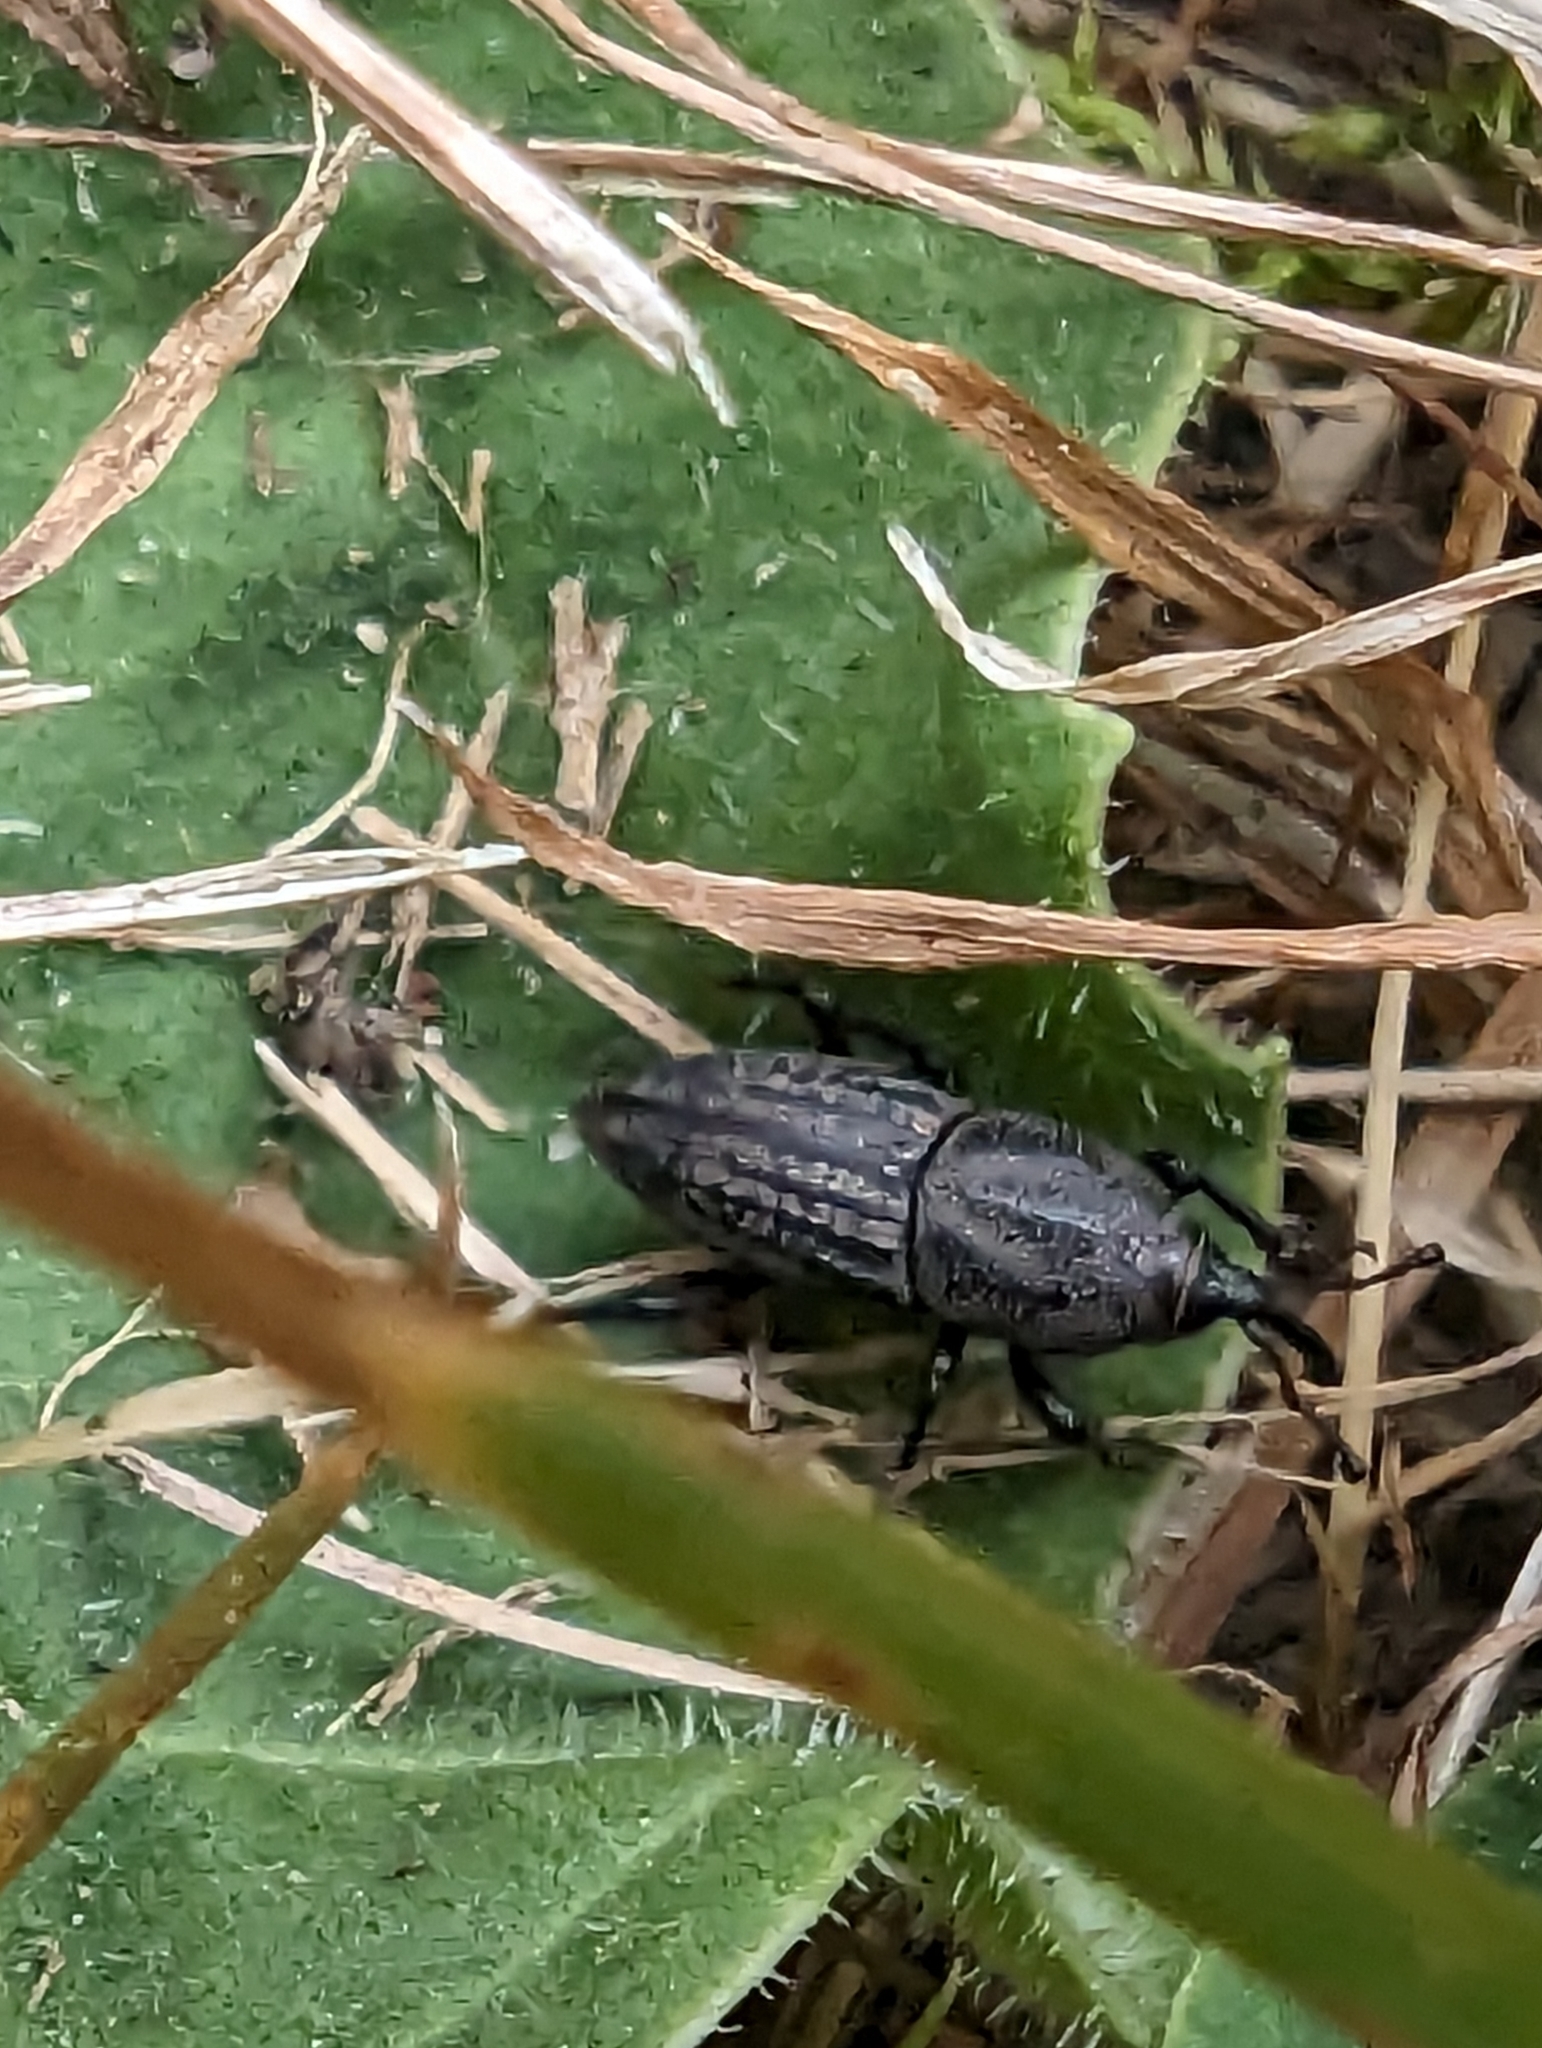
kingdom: Animalia
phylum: Arthropoda
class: Insecta
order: Coleoptera
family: Dryophthoridae
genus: Sphenophorus
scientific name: Sphenophorus interstitialis
